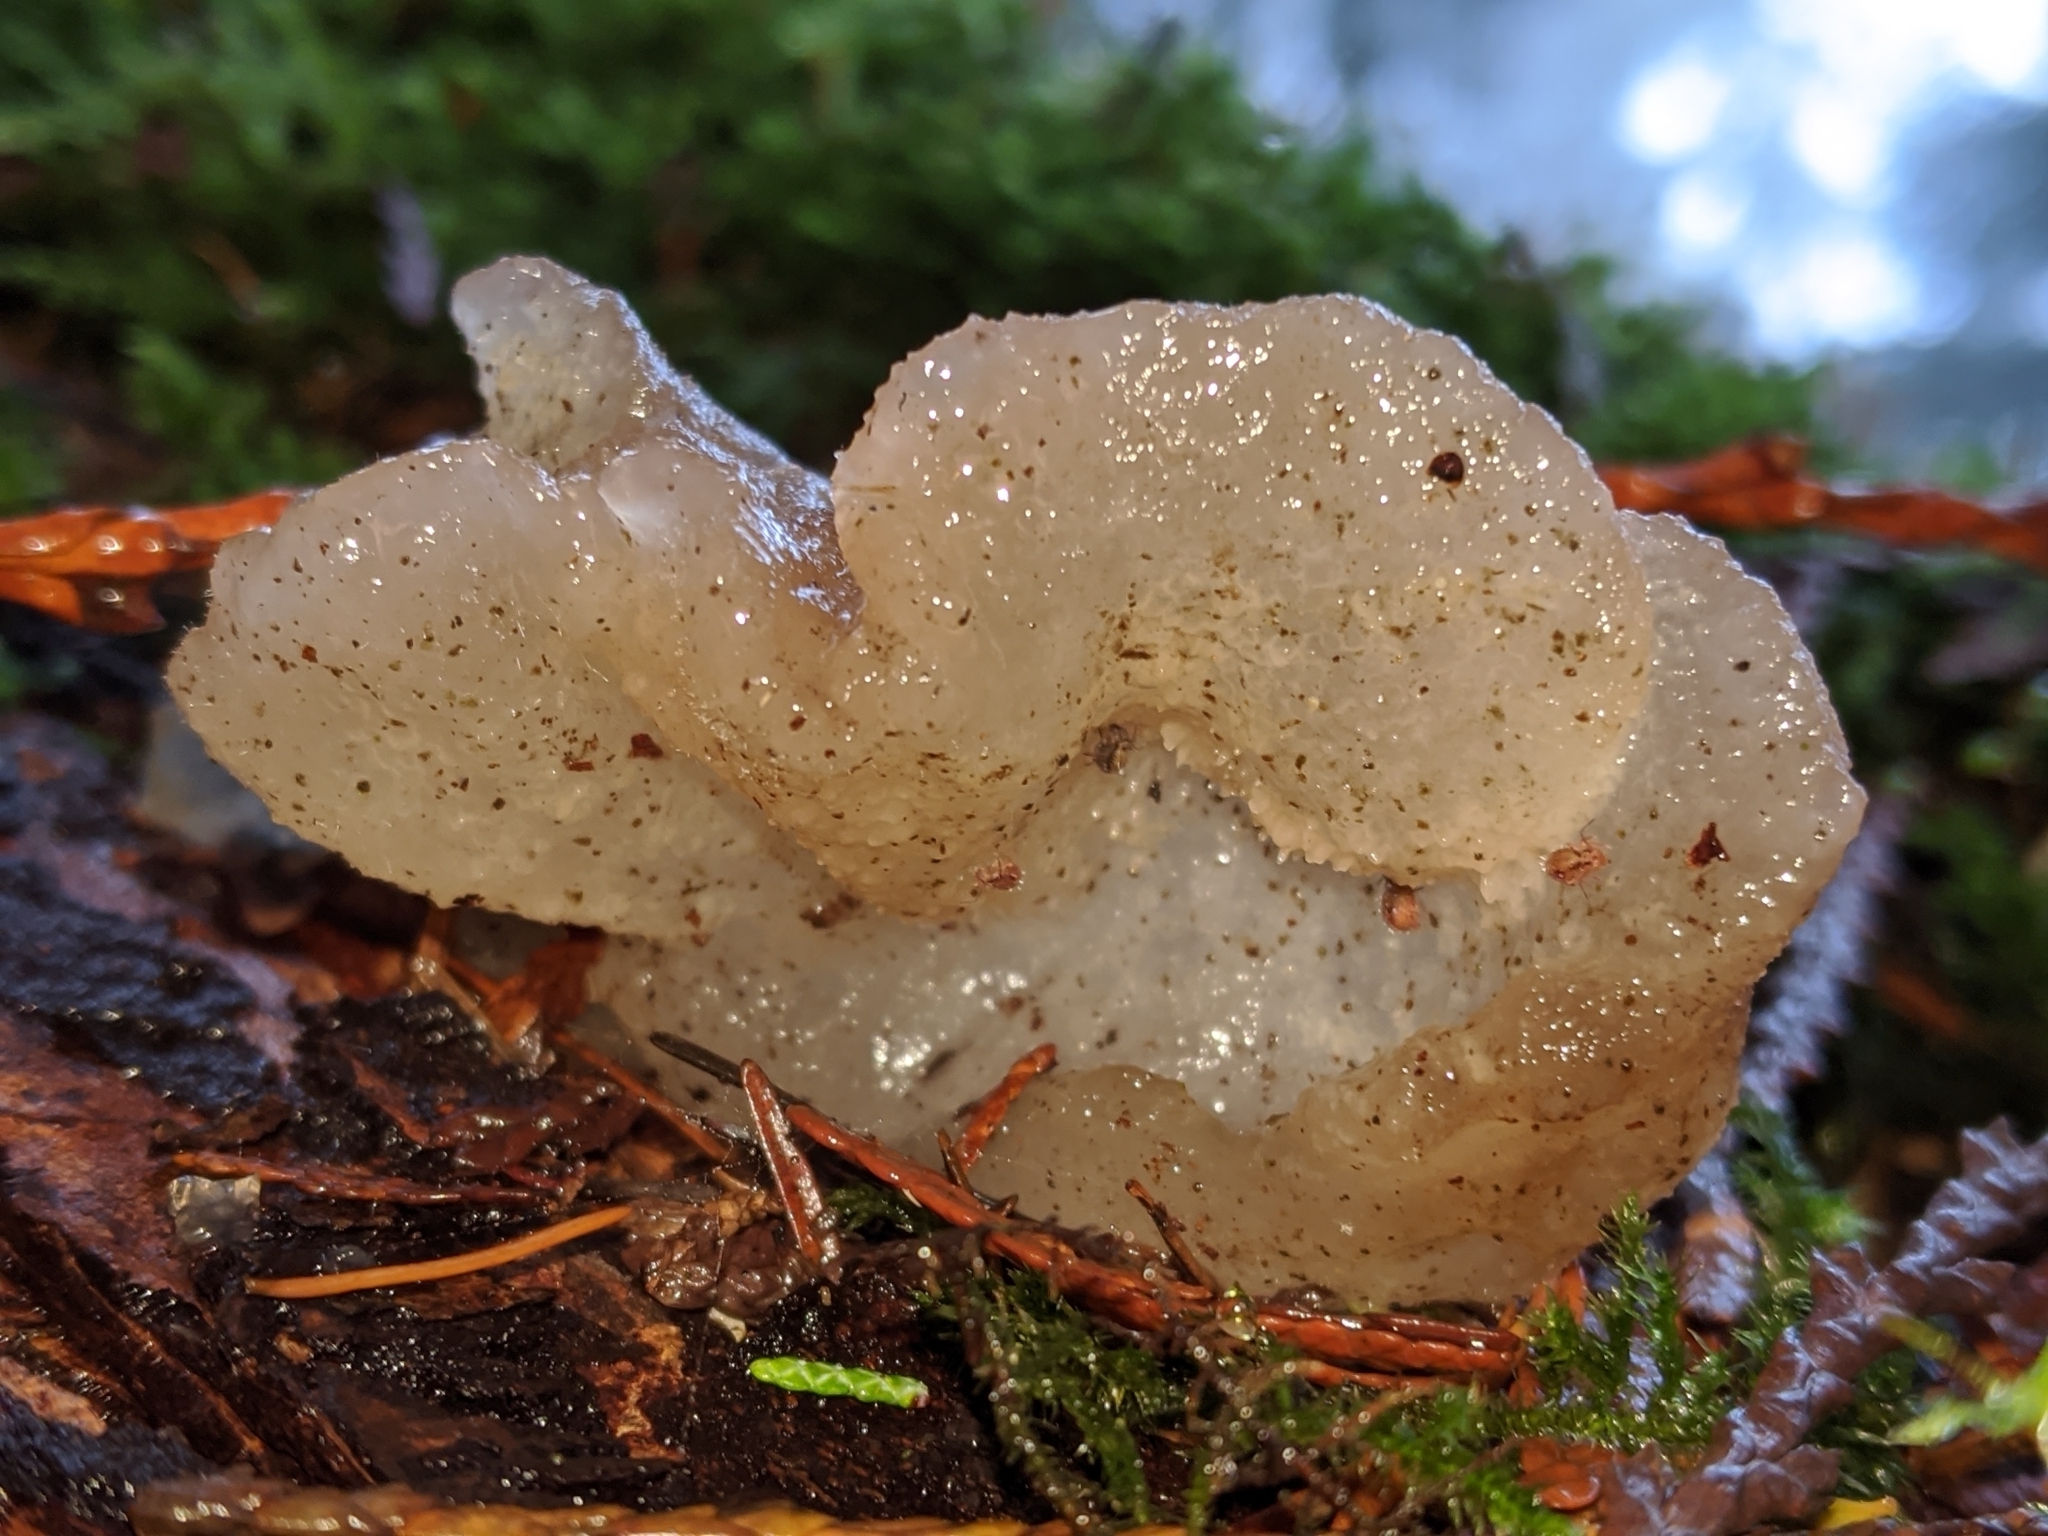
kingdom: Fungi
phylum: Basidiomycota
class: Agaricomycetes
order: Auriculariales
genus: Pseudohydnum
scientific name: Pseudohydnum gelatinosum
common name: Jelly tongue
